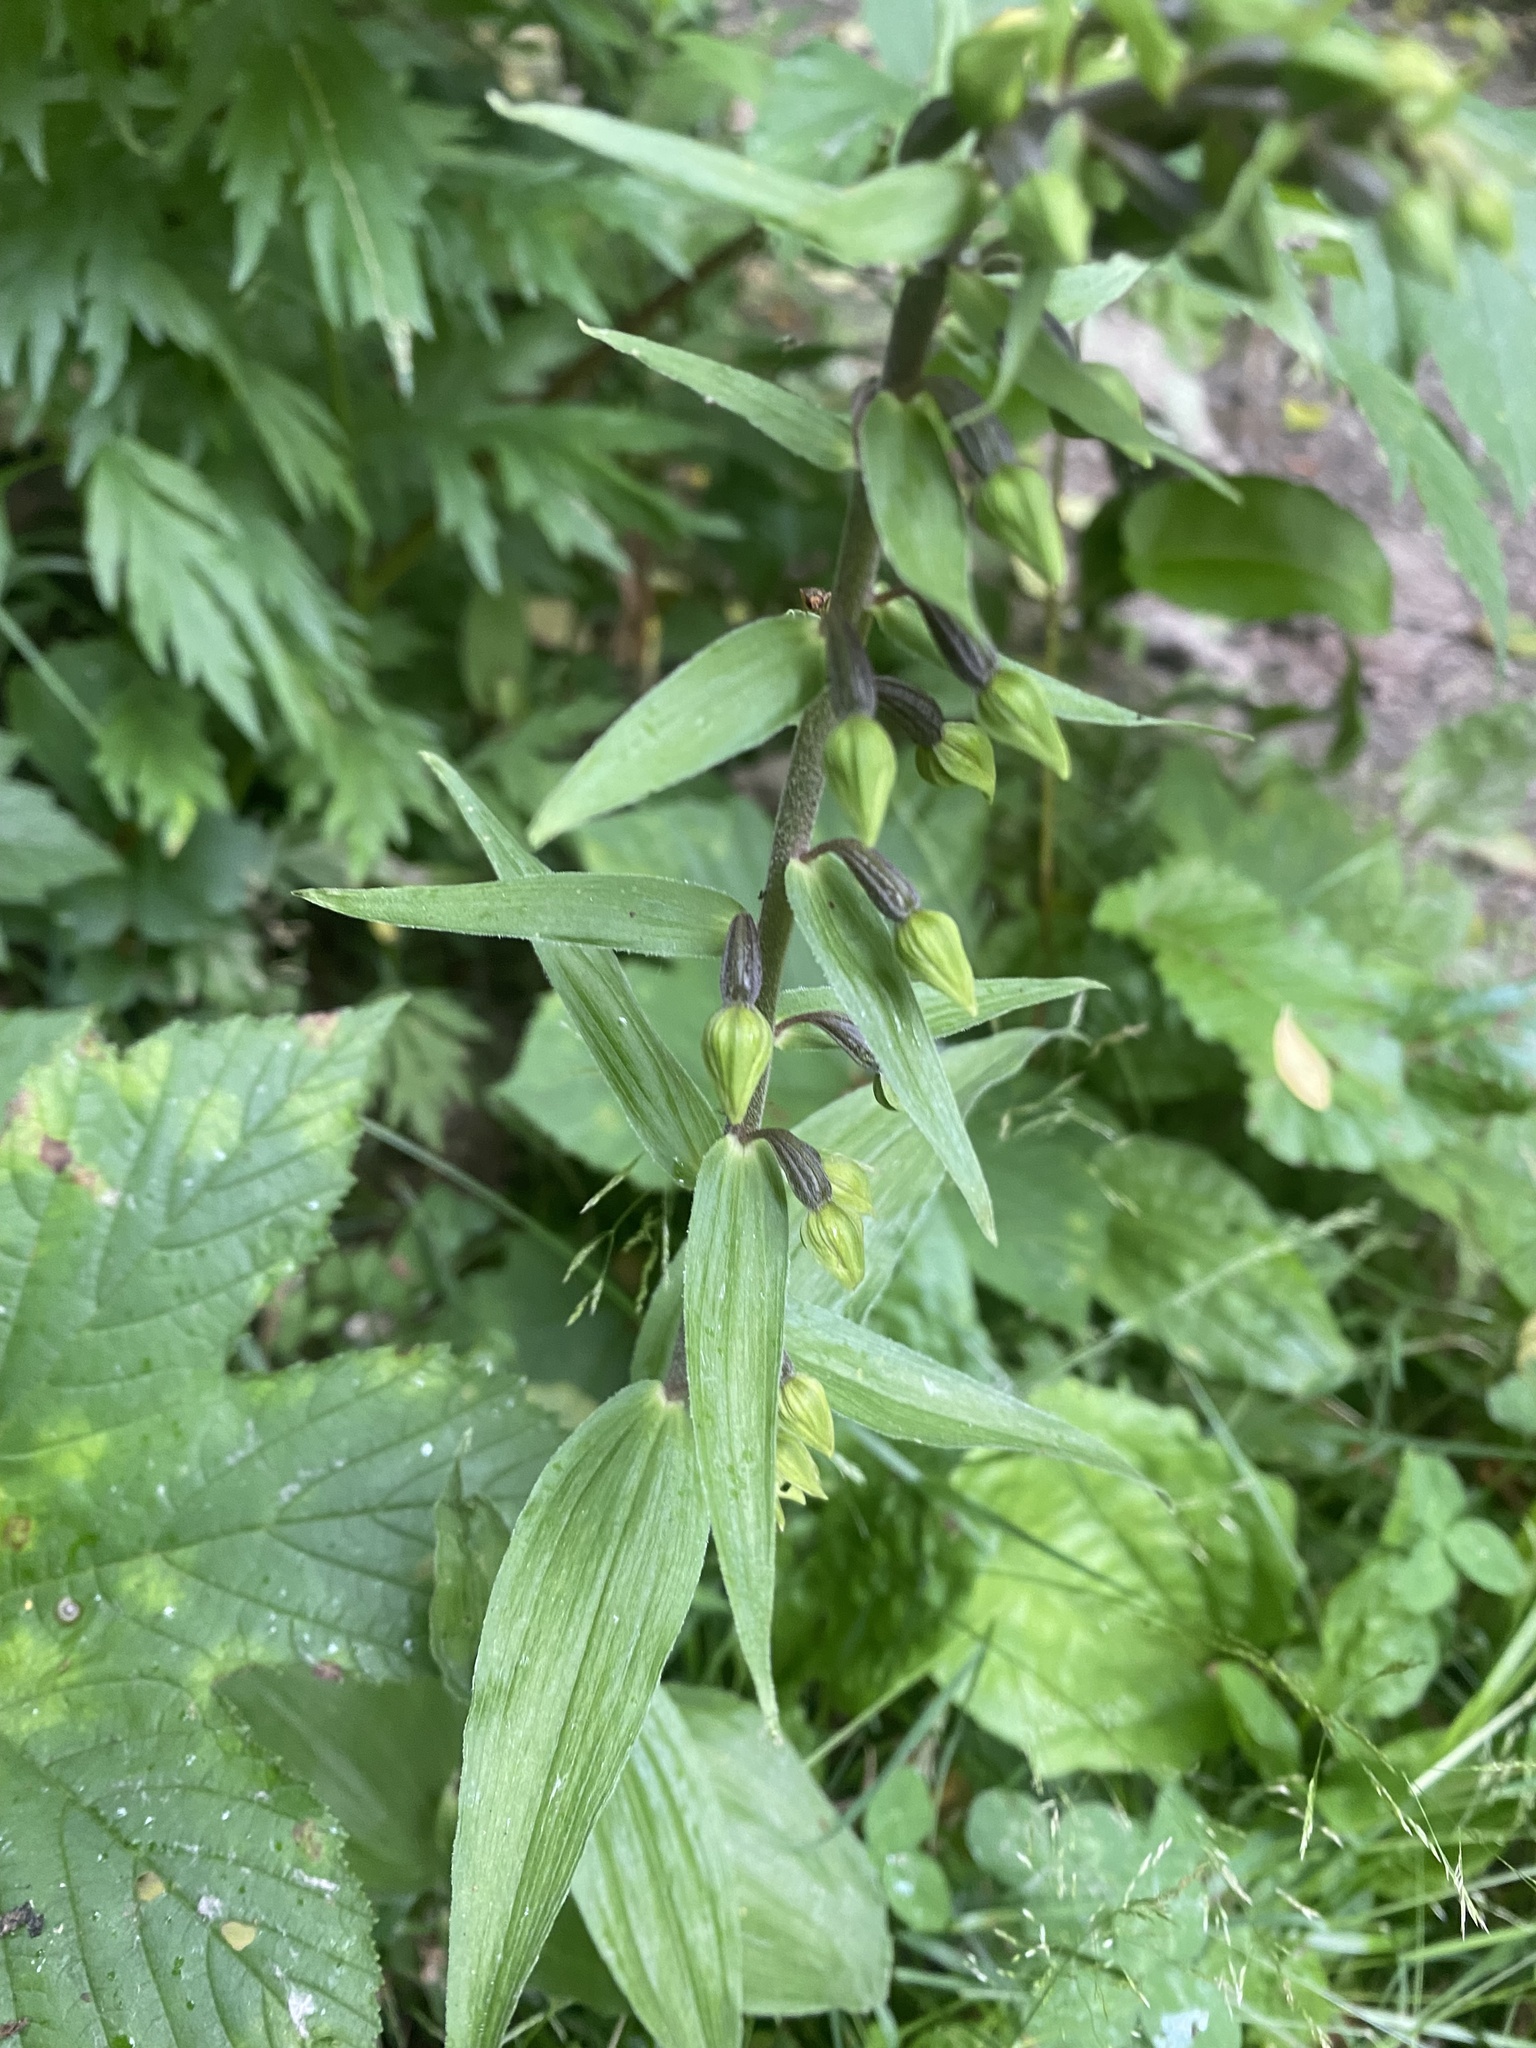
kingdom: Plantae
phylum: Tracheophyta
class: Liliopsida
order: Asparagales
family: Orchidaceae
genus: Epipactis
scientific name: Epipactis papillosa
